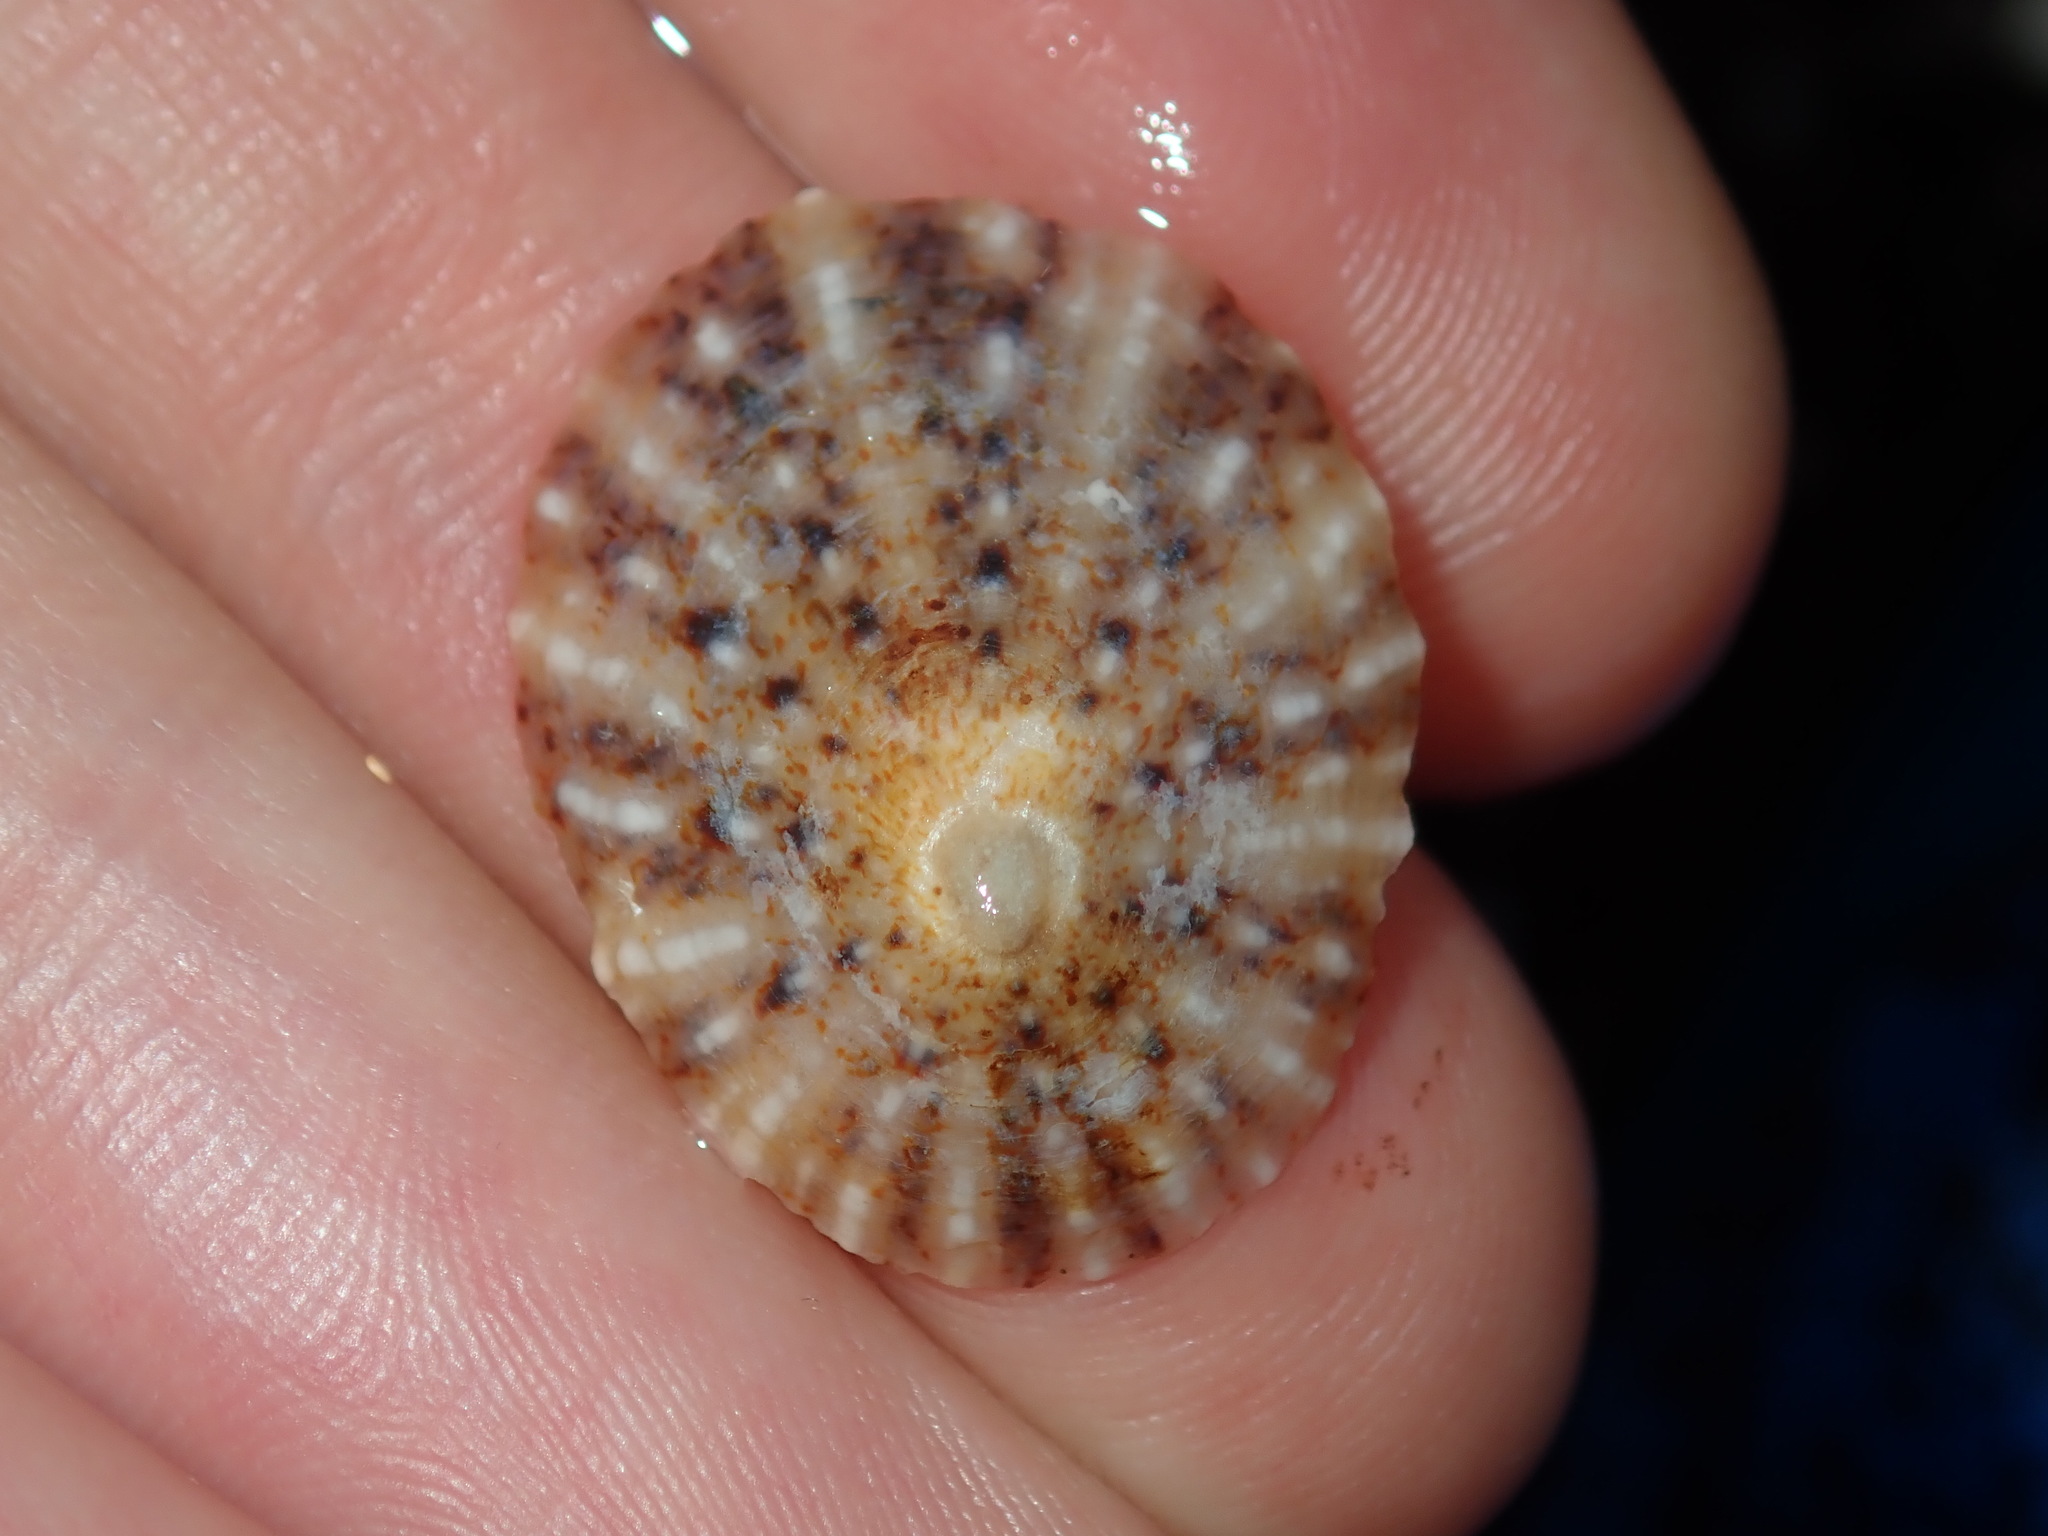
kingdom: Animalia
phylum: Mollusca
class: Gastropoda
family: Nacellidae
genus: Cellana
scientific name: Cellana tramoserica
